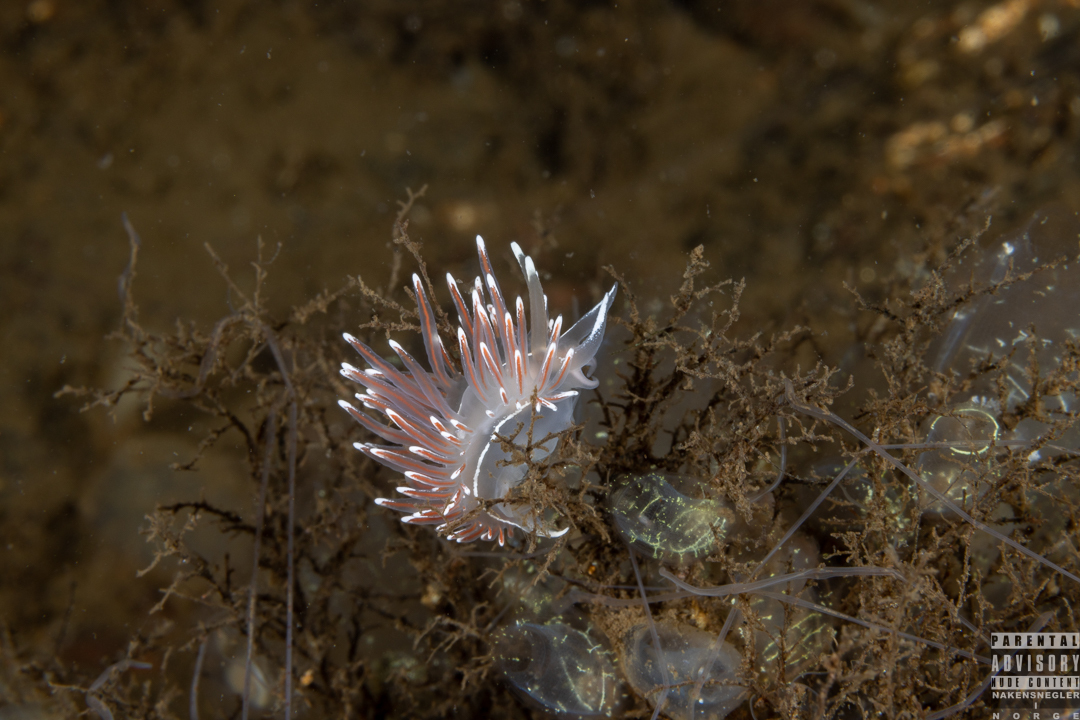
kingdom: Animalia
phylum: Mollusca
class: Gastropoda
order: Nudibranchia
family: Coryphellidae
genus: Coryphella
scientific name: Coryphella lineata
